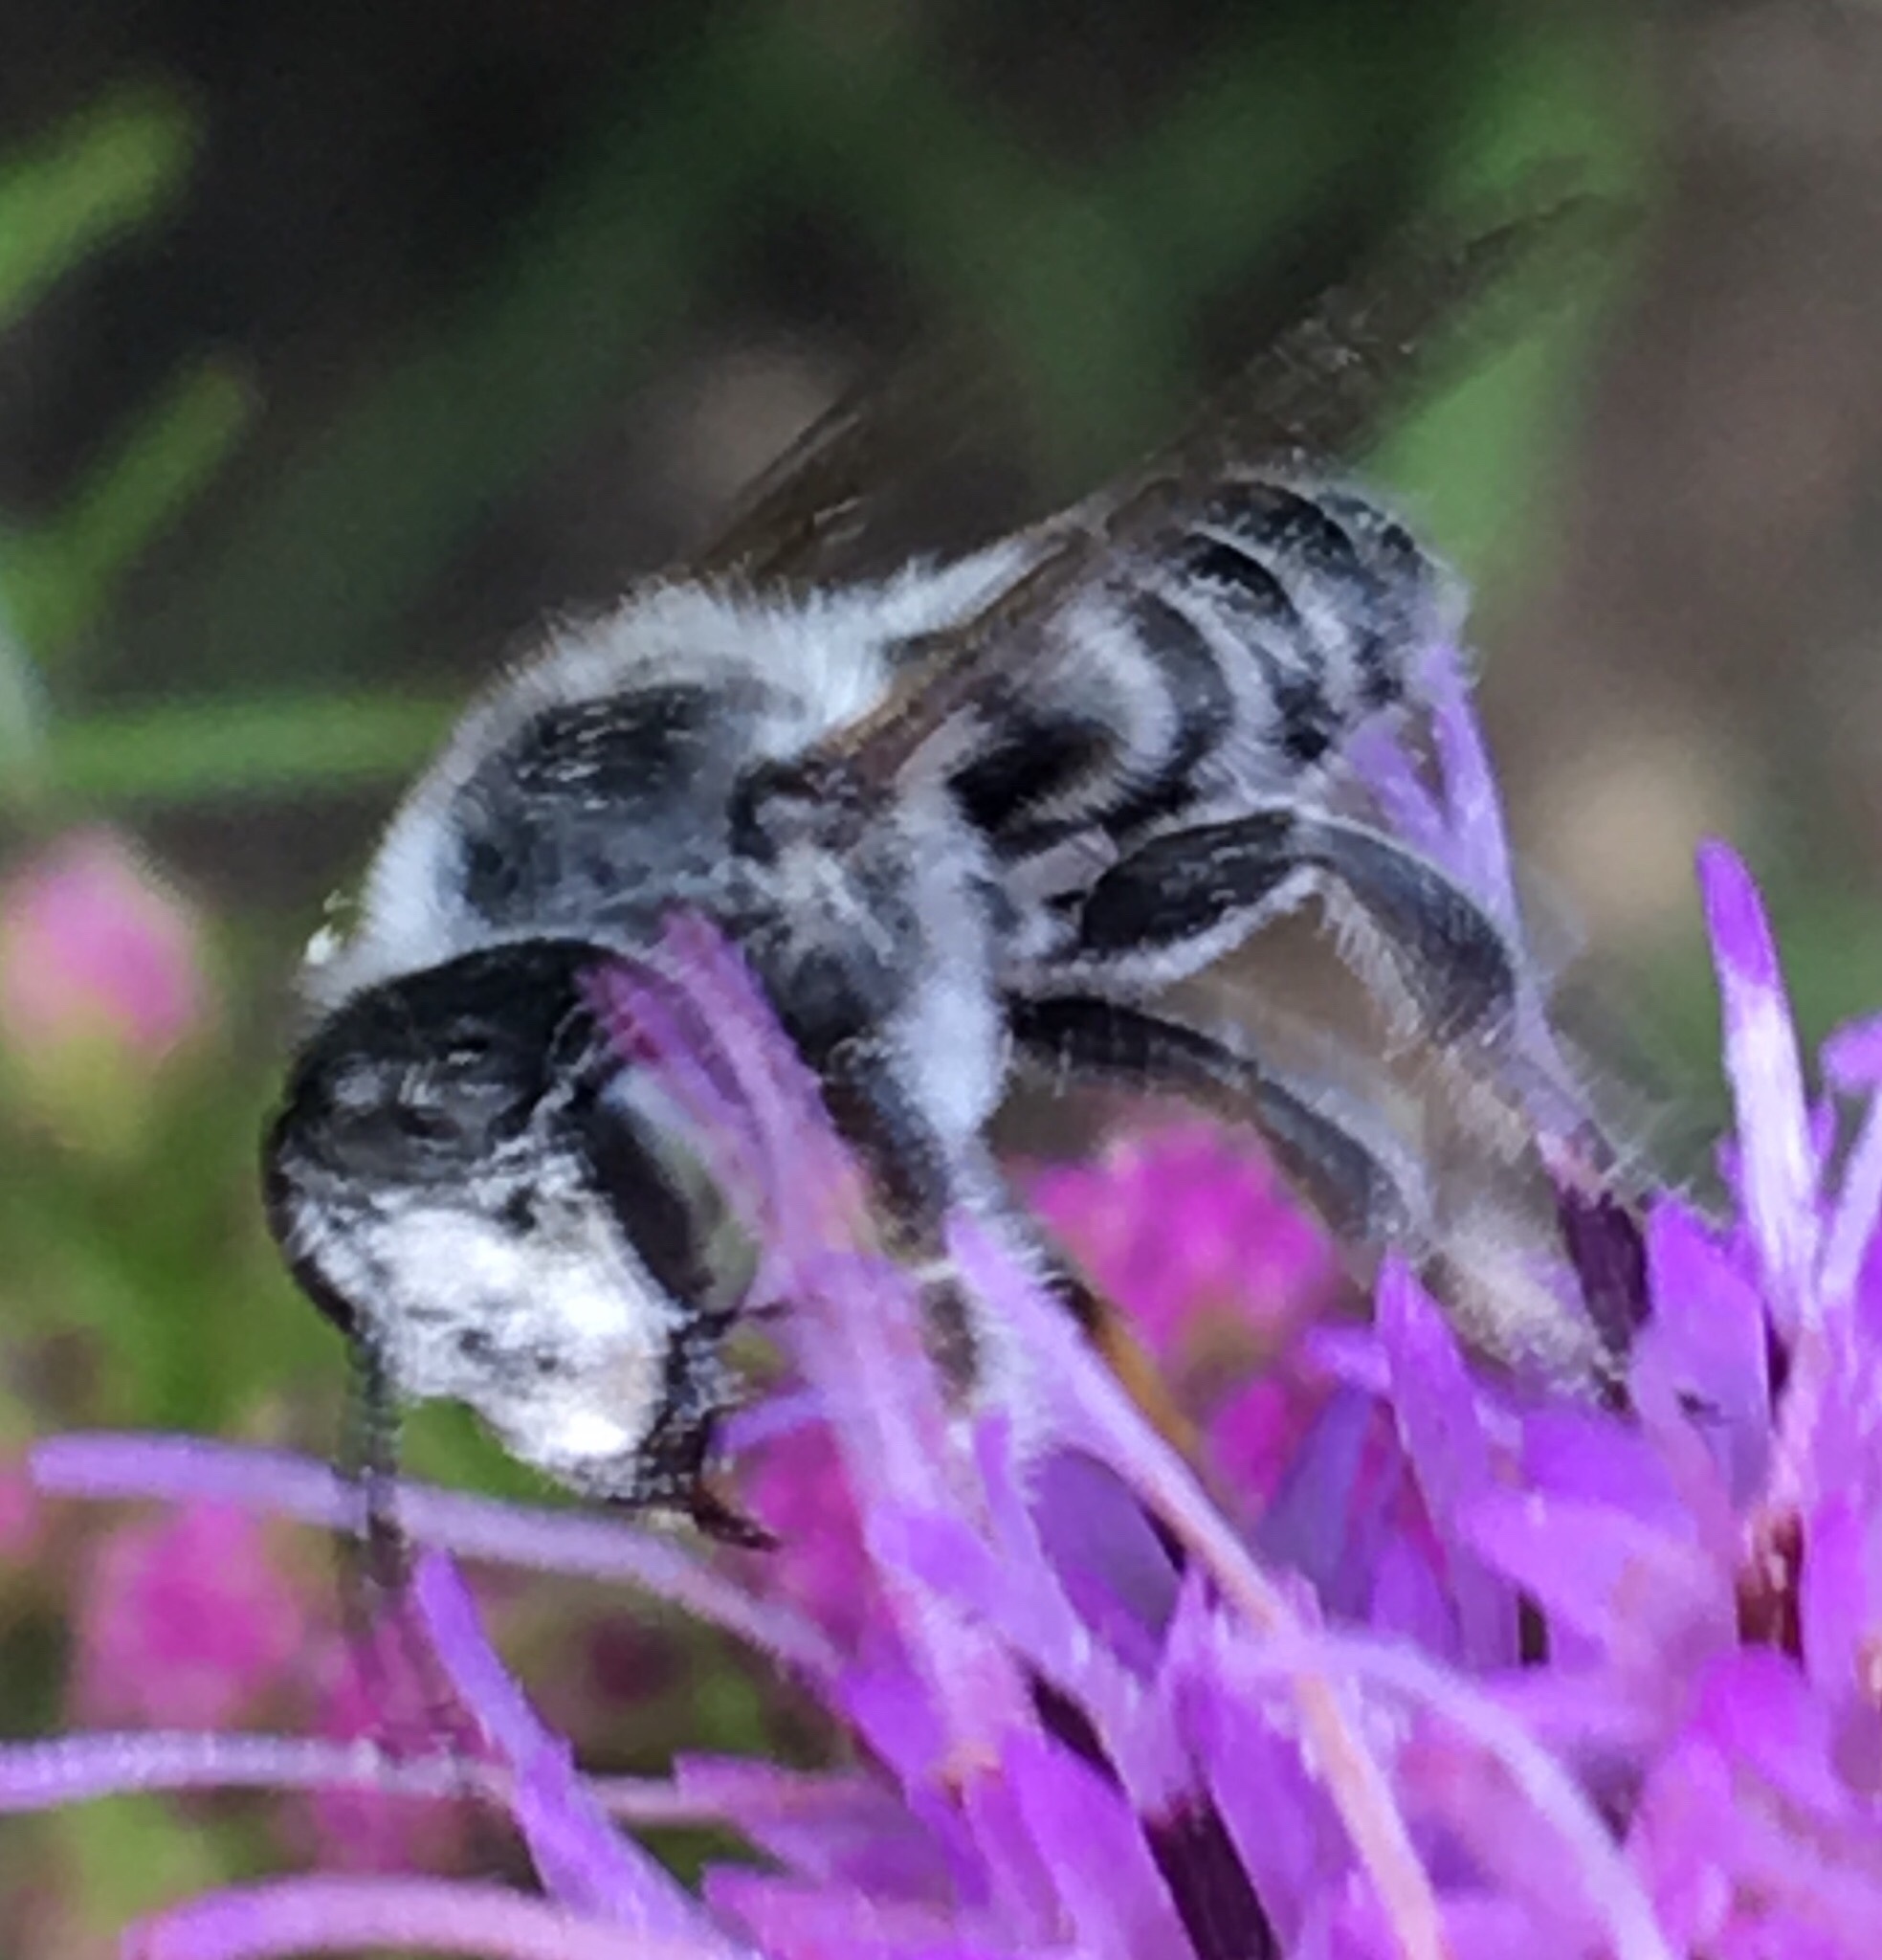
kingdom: Animalia
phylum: Arthropoda
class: Insecta
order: Hymenoptera
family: Megachilidae
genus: Megachile
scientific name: Megachile
